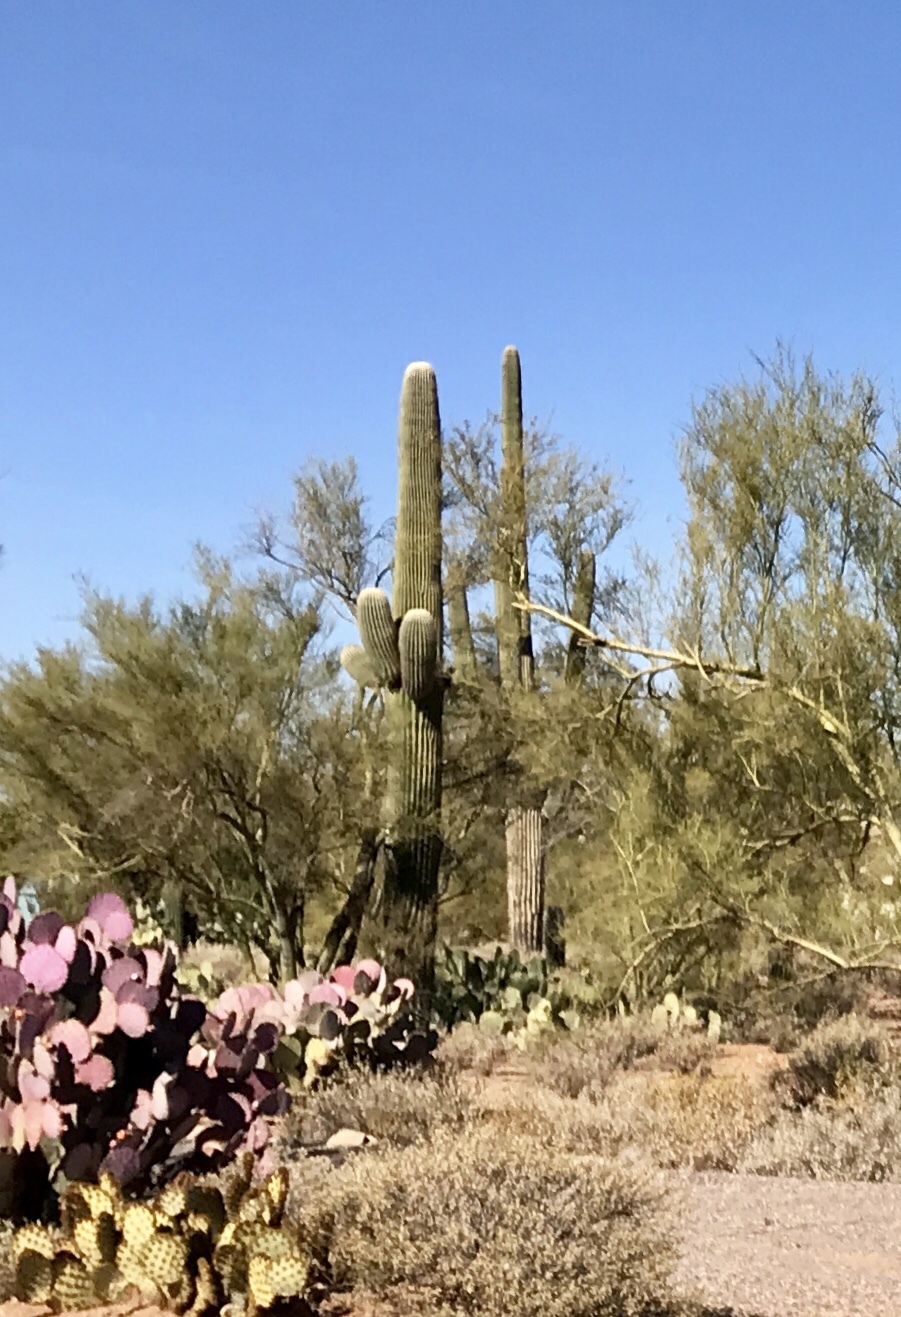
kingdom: Plantae
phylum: Tracheophyta
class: Magnoliopsida
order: Caryophyllales
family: Cactaceae
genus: Carnegiea
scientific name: Carnegiea gigantea
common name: Saguaro
